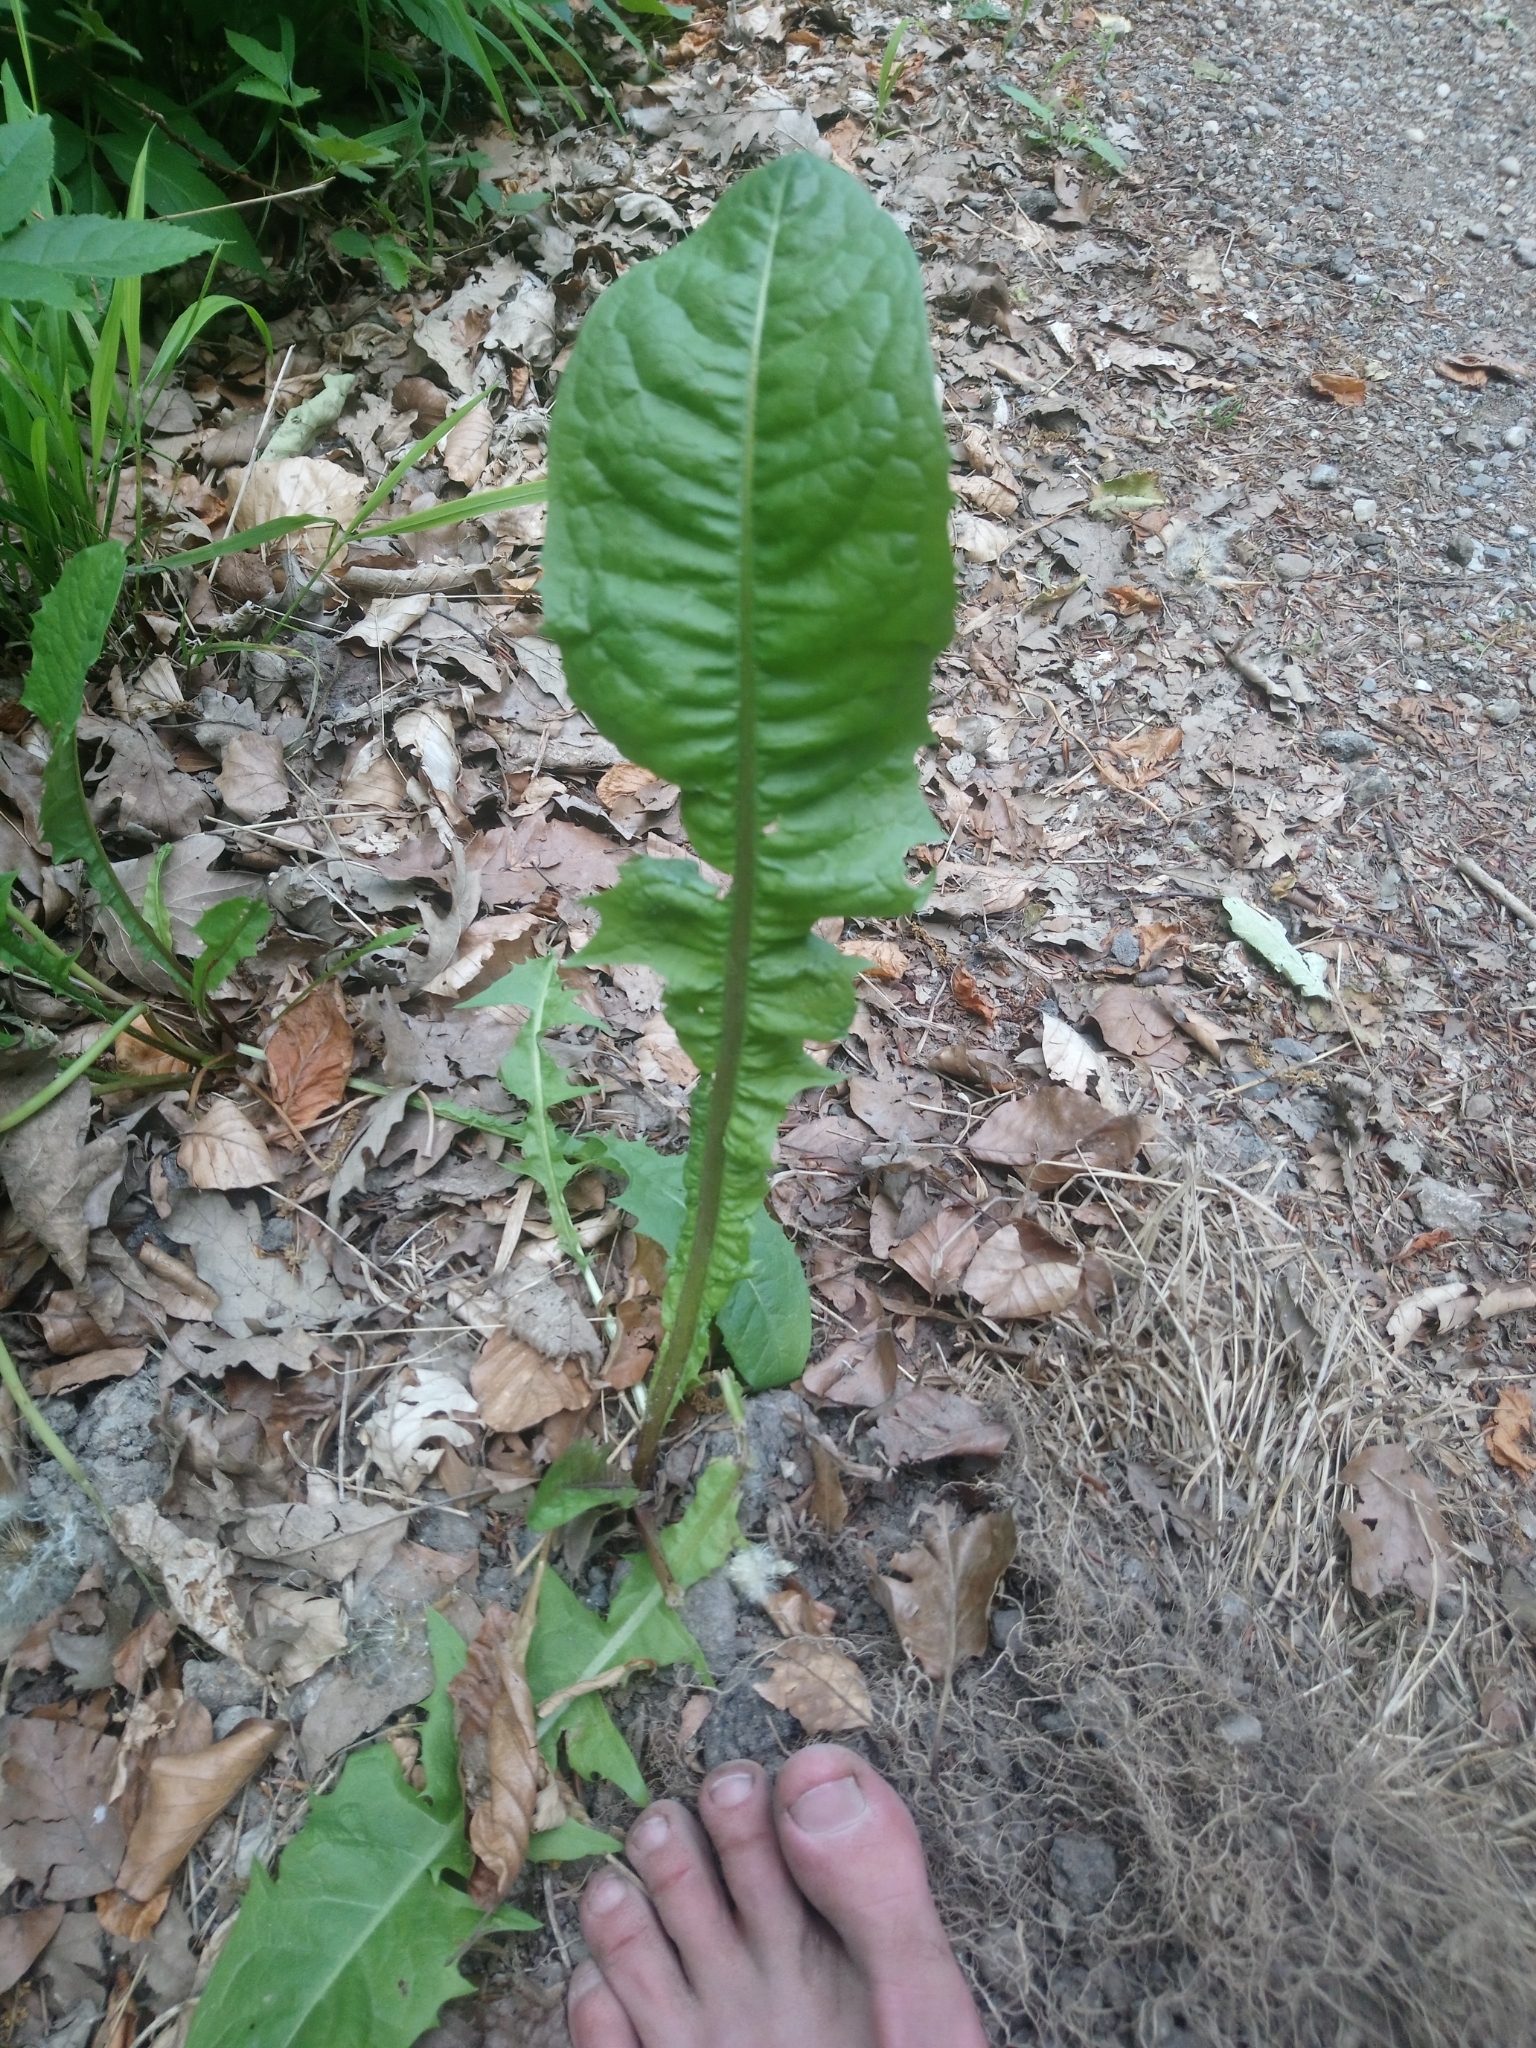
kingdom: Plantae
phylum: Tracheophyta
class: Magnoliopsida
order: Asterales
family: Asteraceae
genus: Taraxacum
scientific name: Taraxacum officinale
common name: Common dandelion
